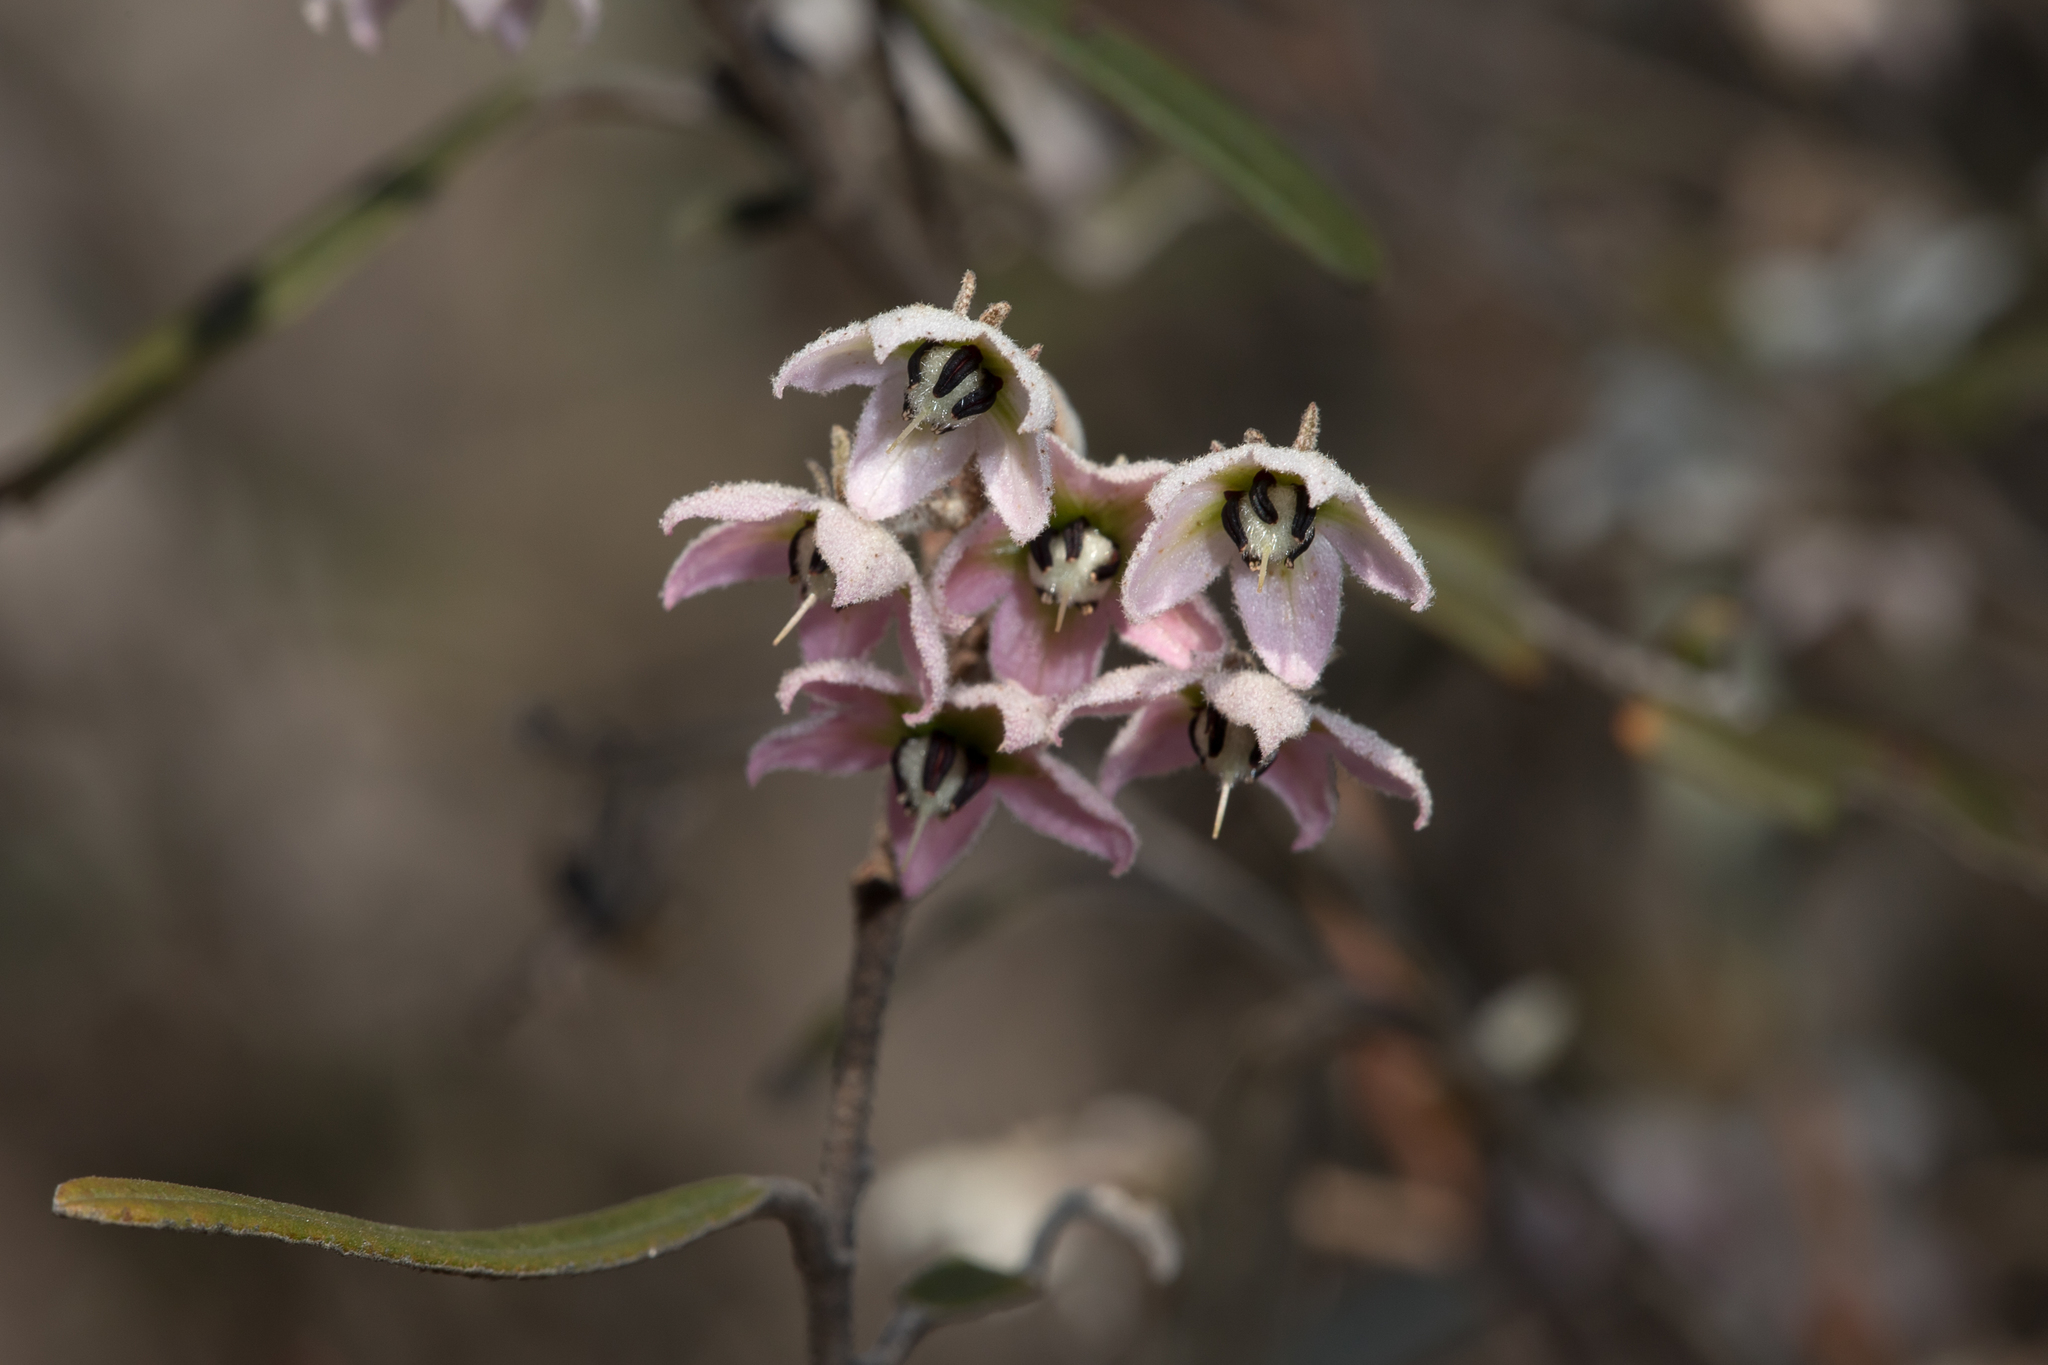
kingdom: Plantae
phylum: Tracheophyta
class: Magnoliopsida
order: Malvales
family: Malvaceae
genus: Lasiopetalum
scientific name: Lasiopetalum behrii
